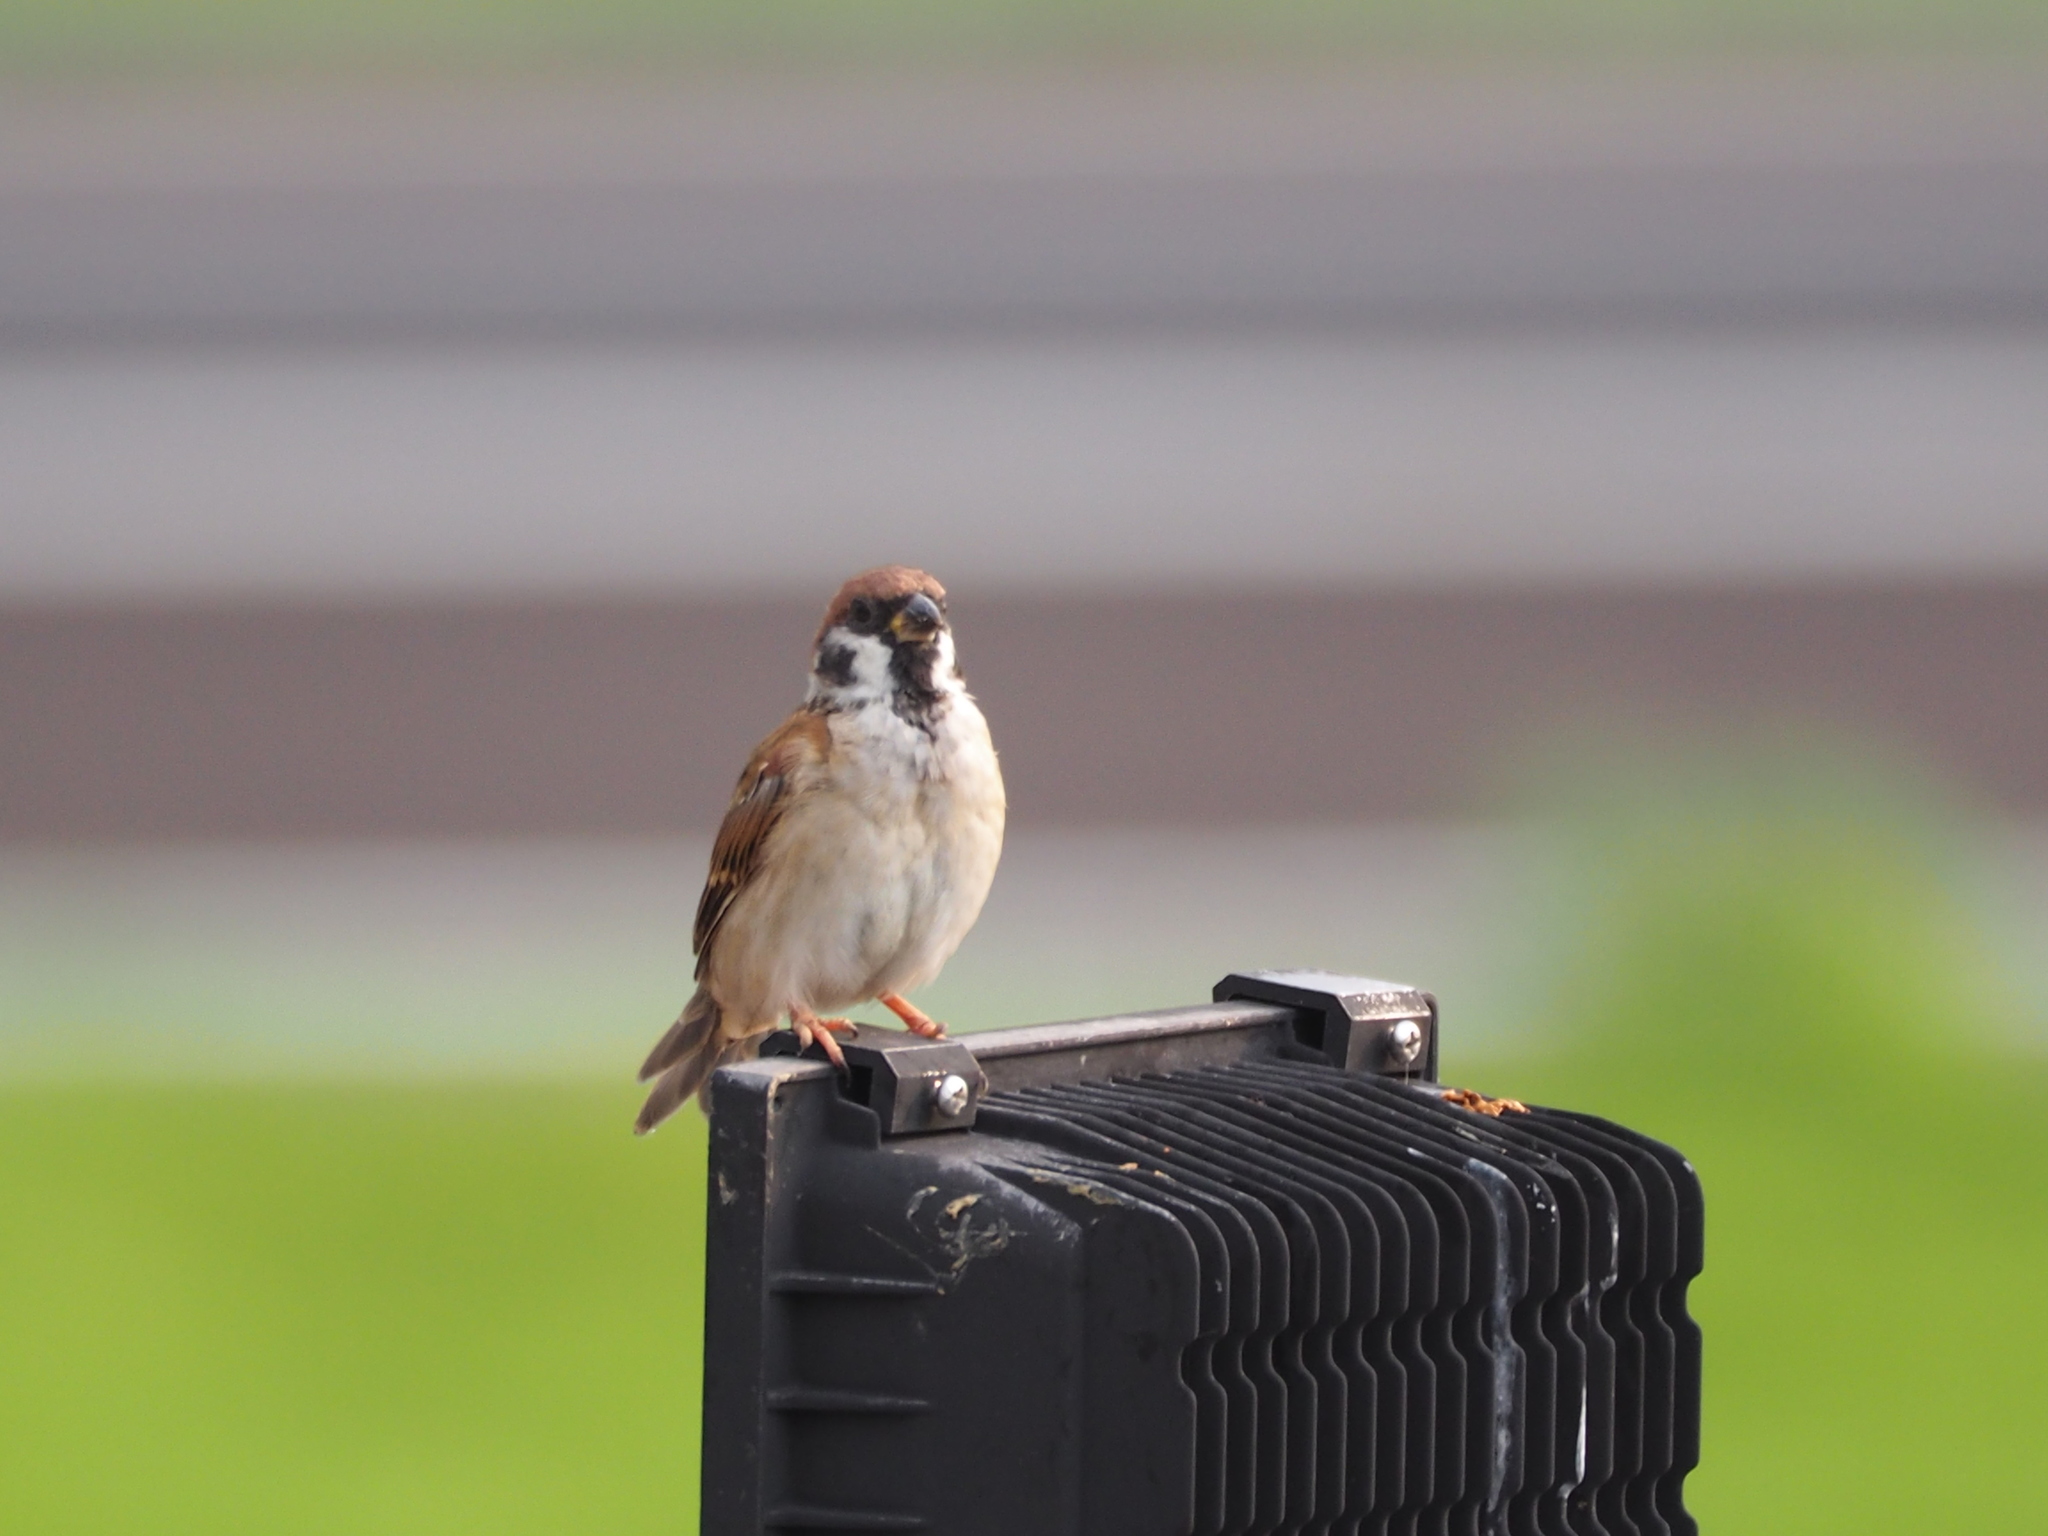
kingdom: Animalia
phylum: Chordata
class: Aves
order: Passeriformes
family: Passeridae
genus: Passer
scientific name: Passer montanus
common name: Eurasian tree sparrow
